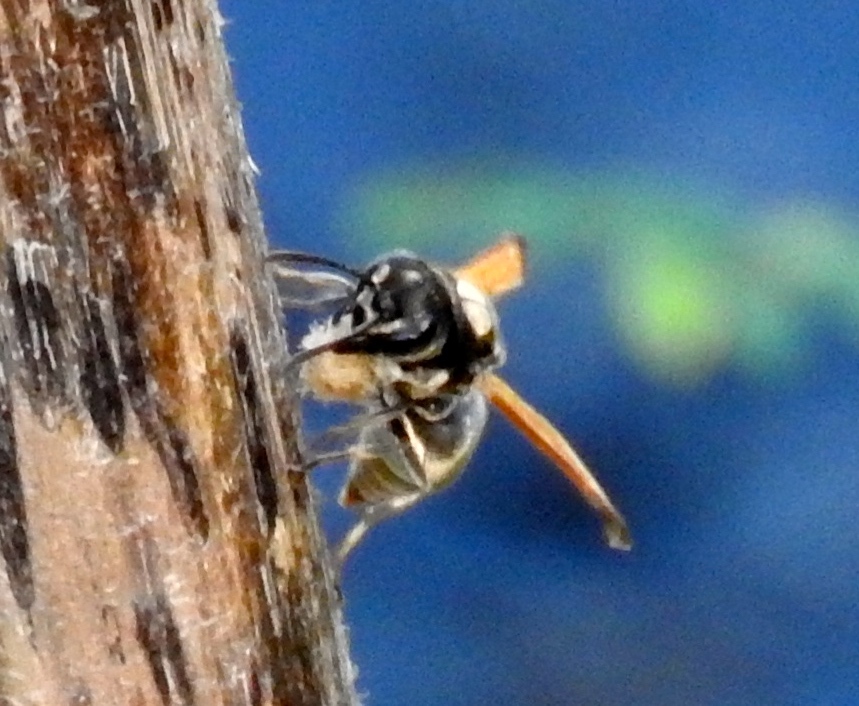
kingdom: Animalia
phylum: Arthropoda
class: Insecta
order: Hymenoptera
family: Vespidae
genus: Brachygastra
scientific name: Brachygastra mellifica
